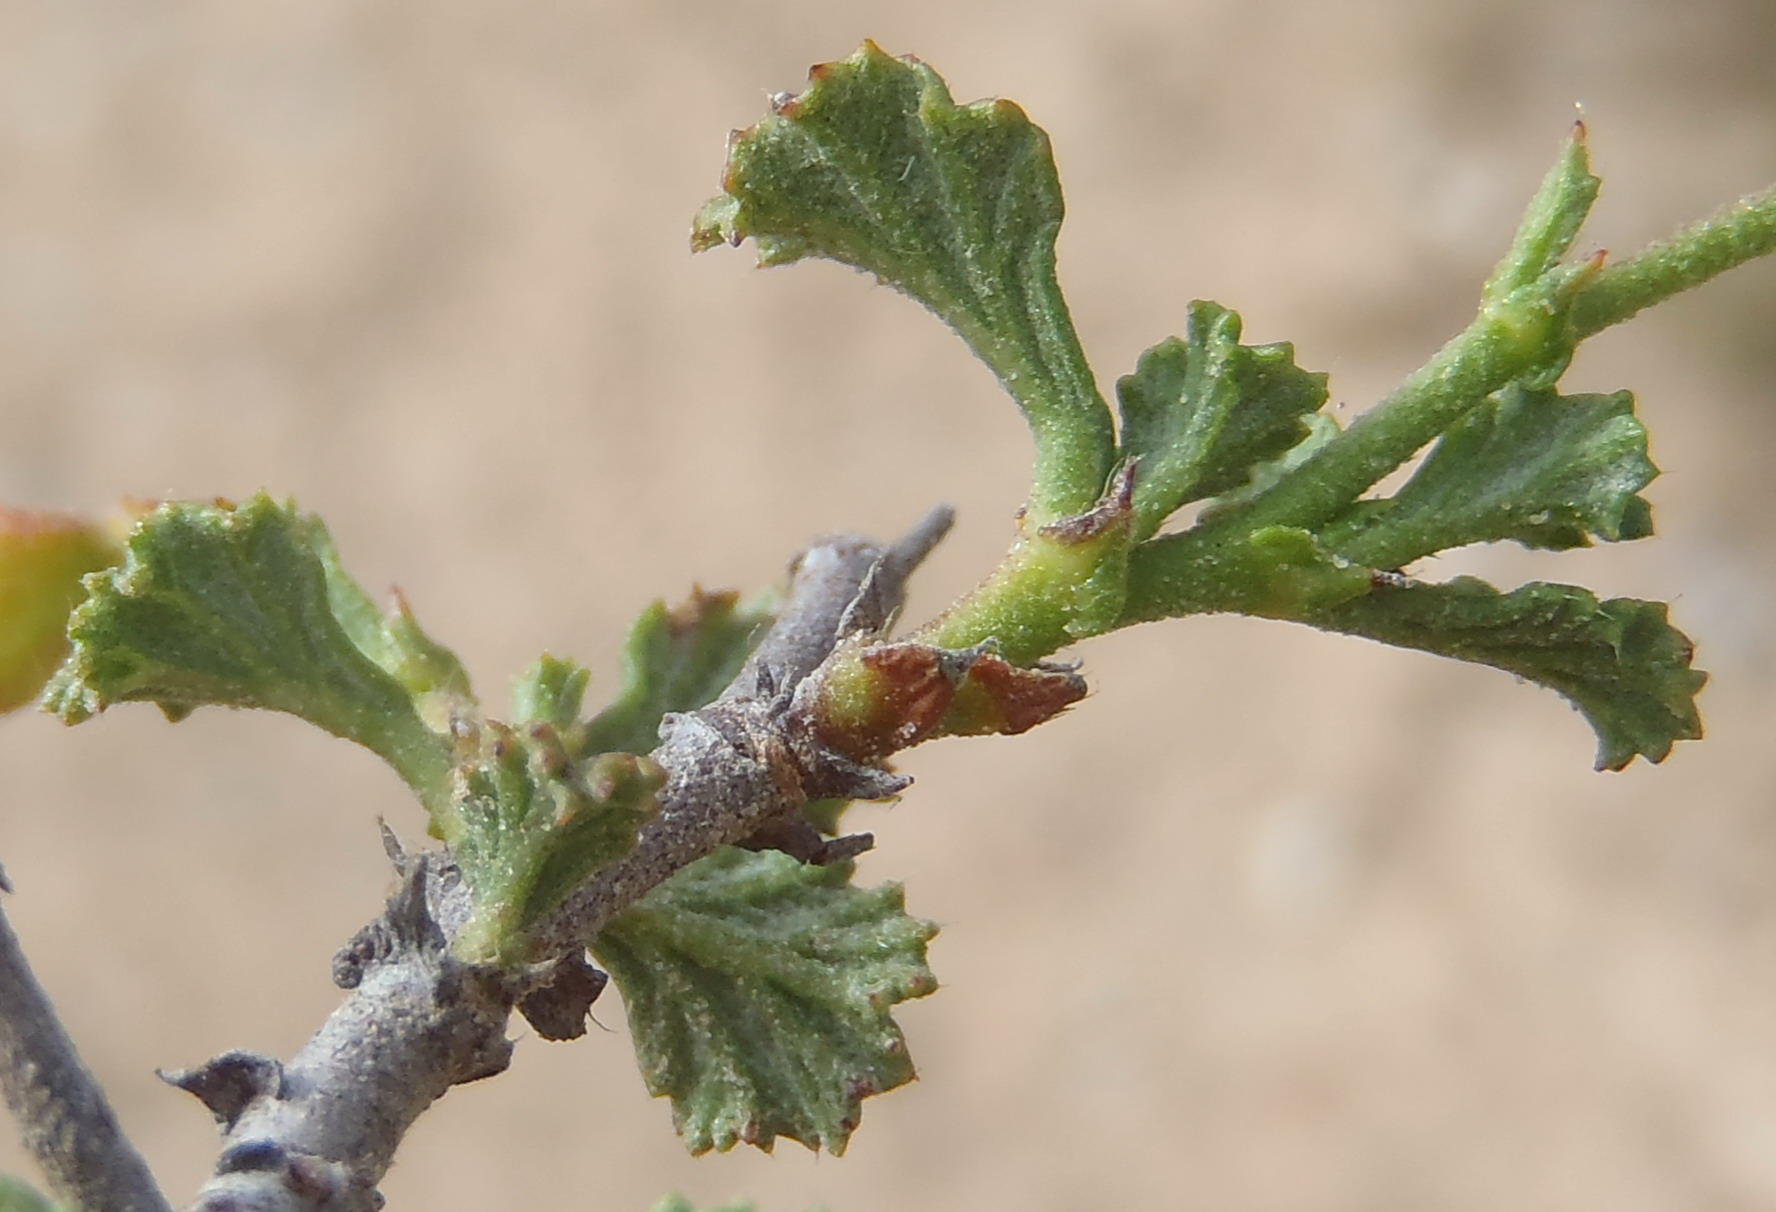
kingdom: Plantae
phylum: Tracheophyta
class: Magnoliopsida
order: Malvales
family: Malvaceae
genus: Hermannia
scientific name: Hermannia alnifolia
